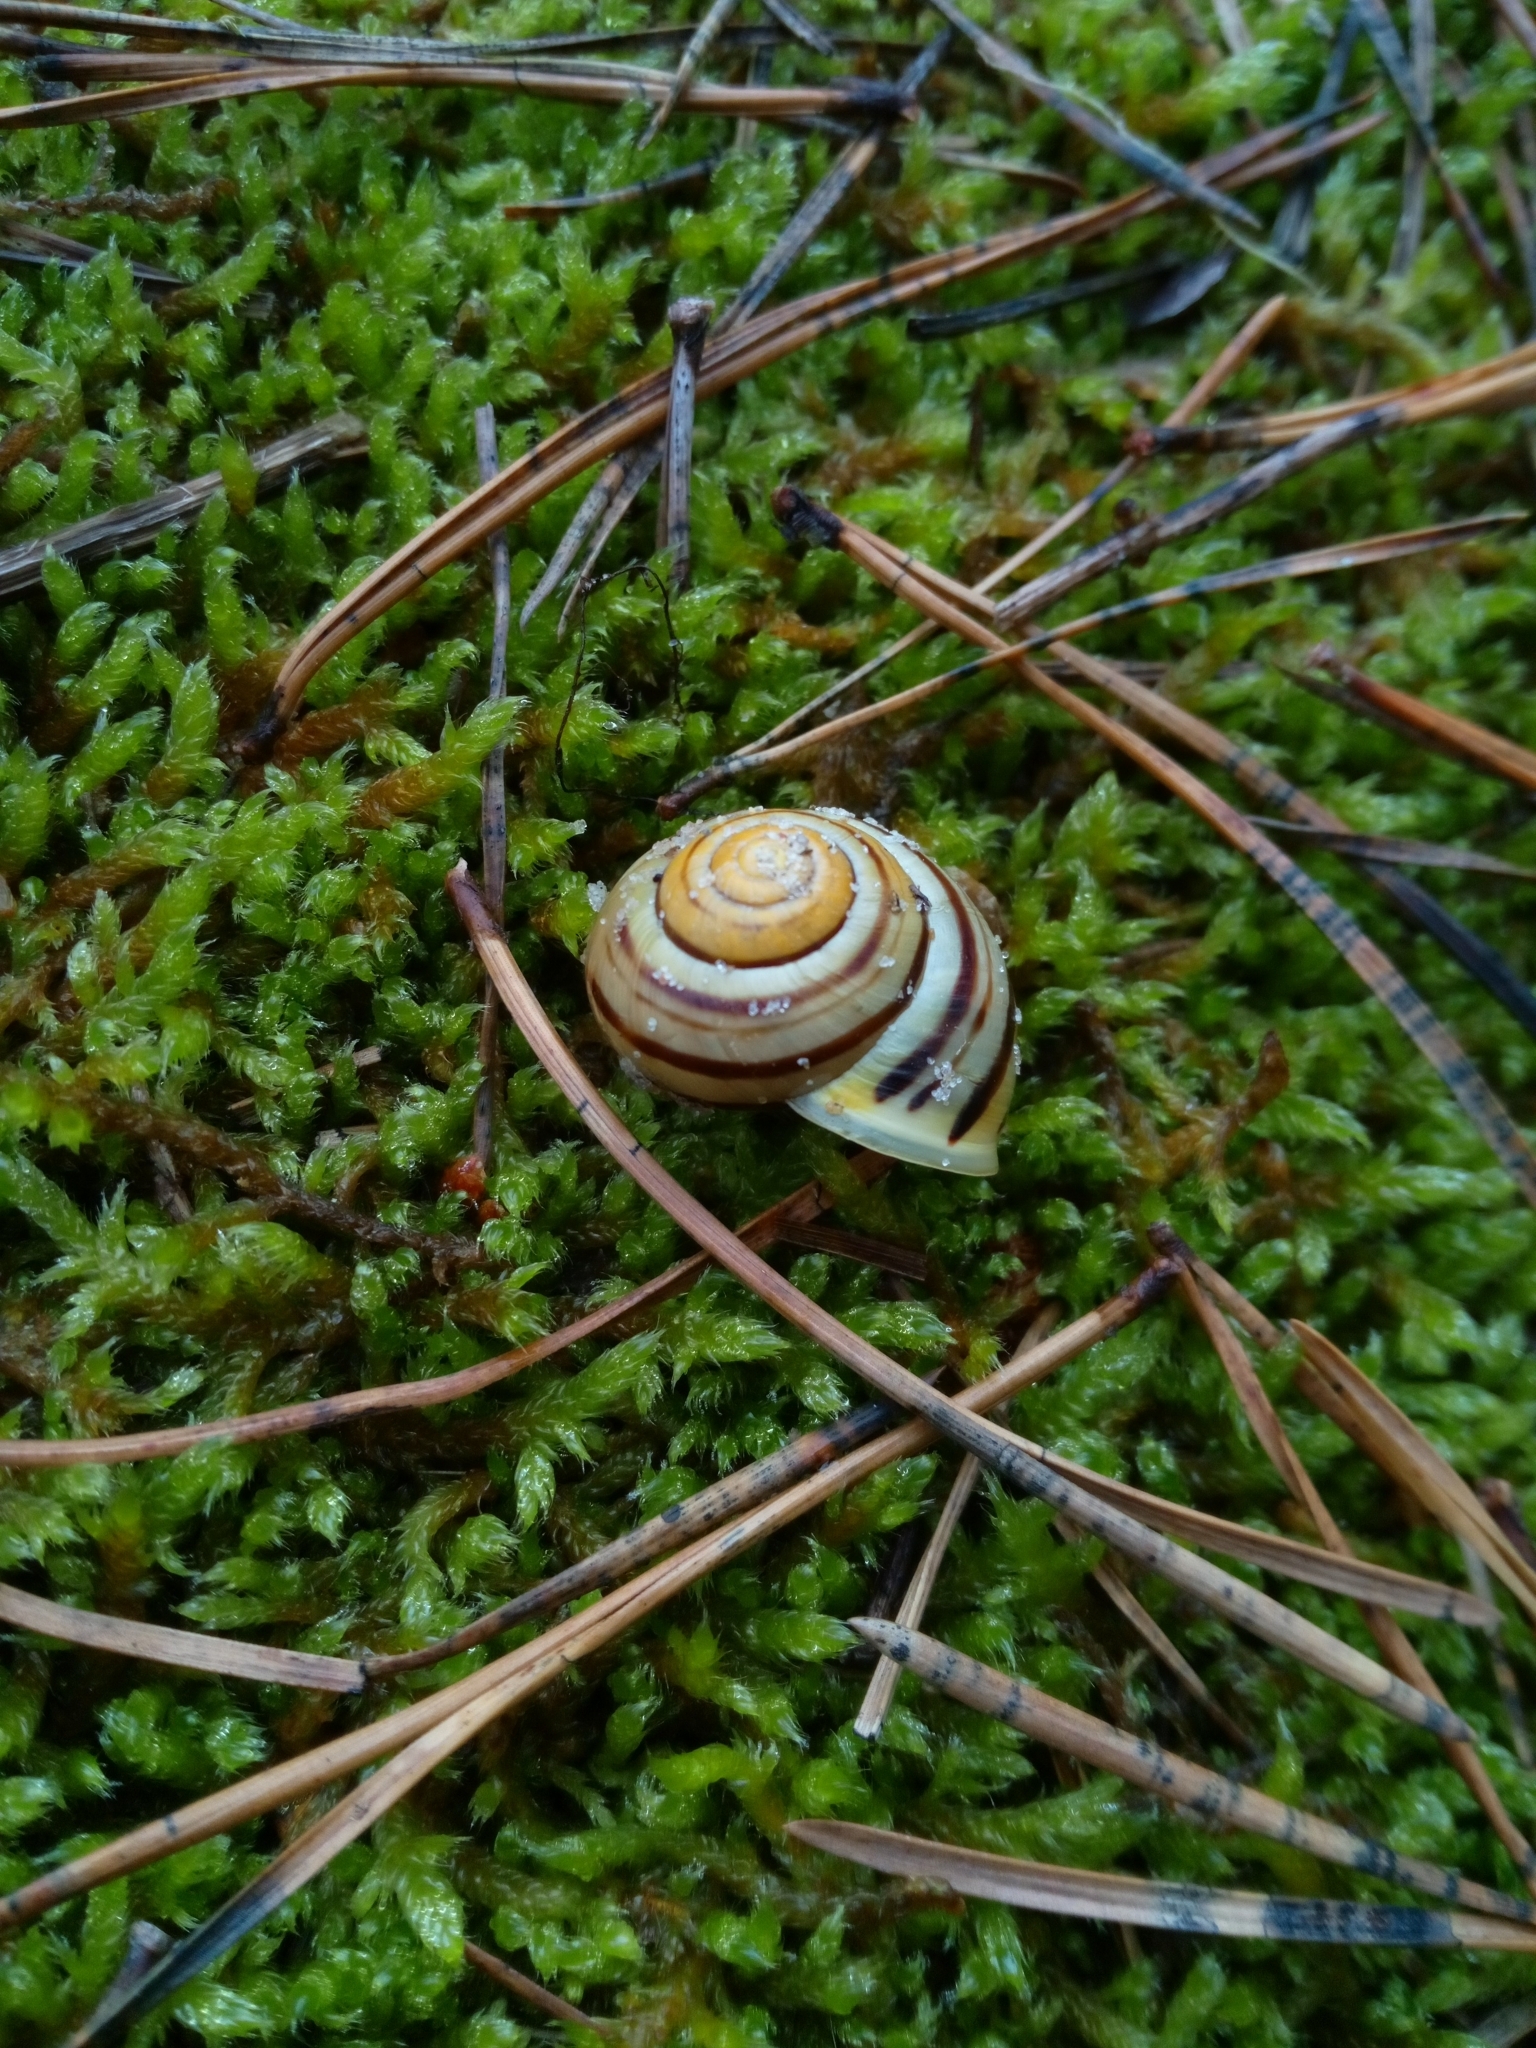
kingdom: Animalia
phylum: Mollusca
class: Gastropoda
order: Stylommatophora
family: Helicidae
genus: Cepaea
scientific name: Cepaea hortensis
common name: White-lip gardensnail
